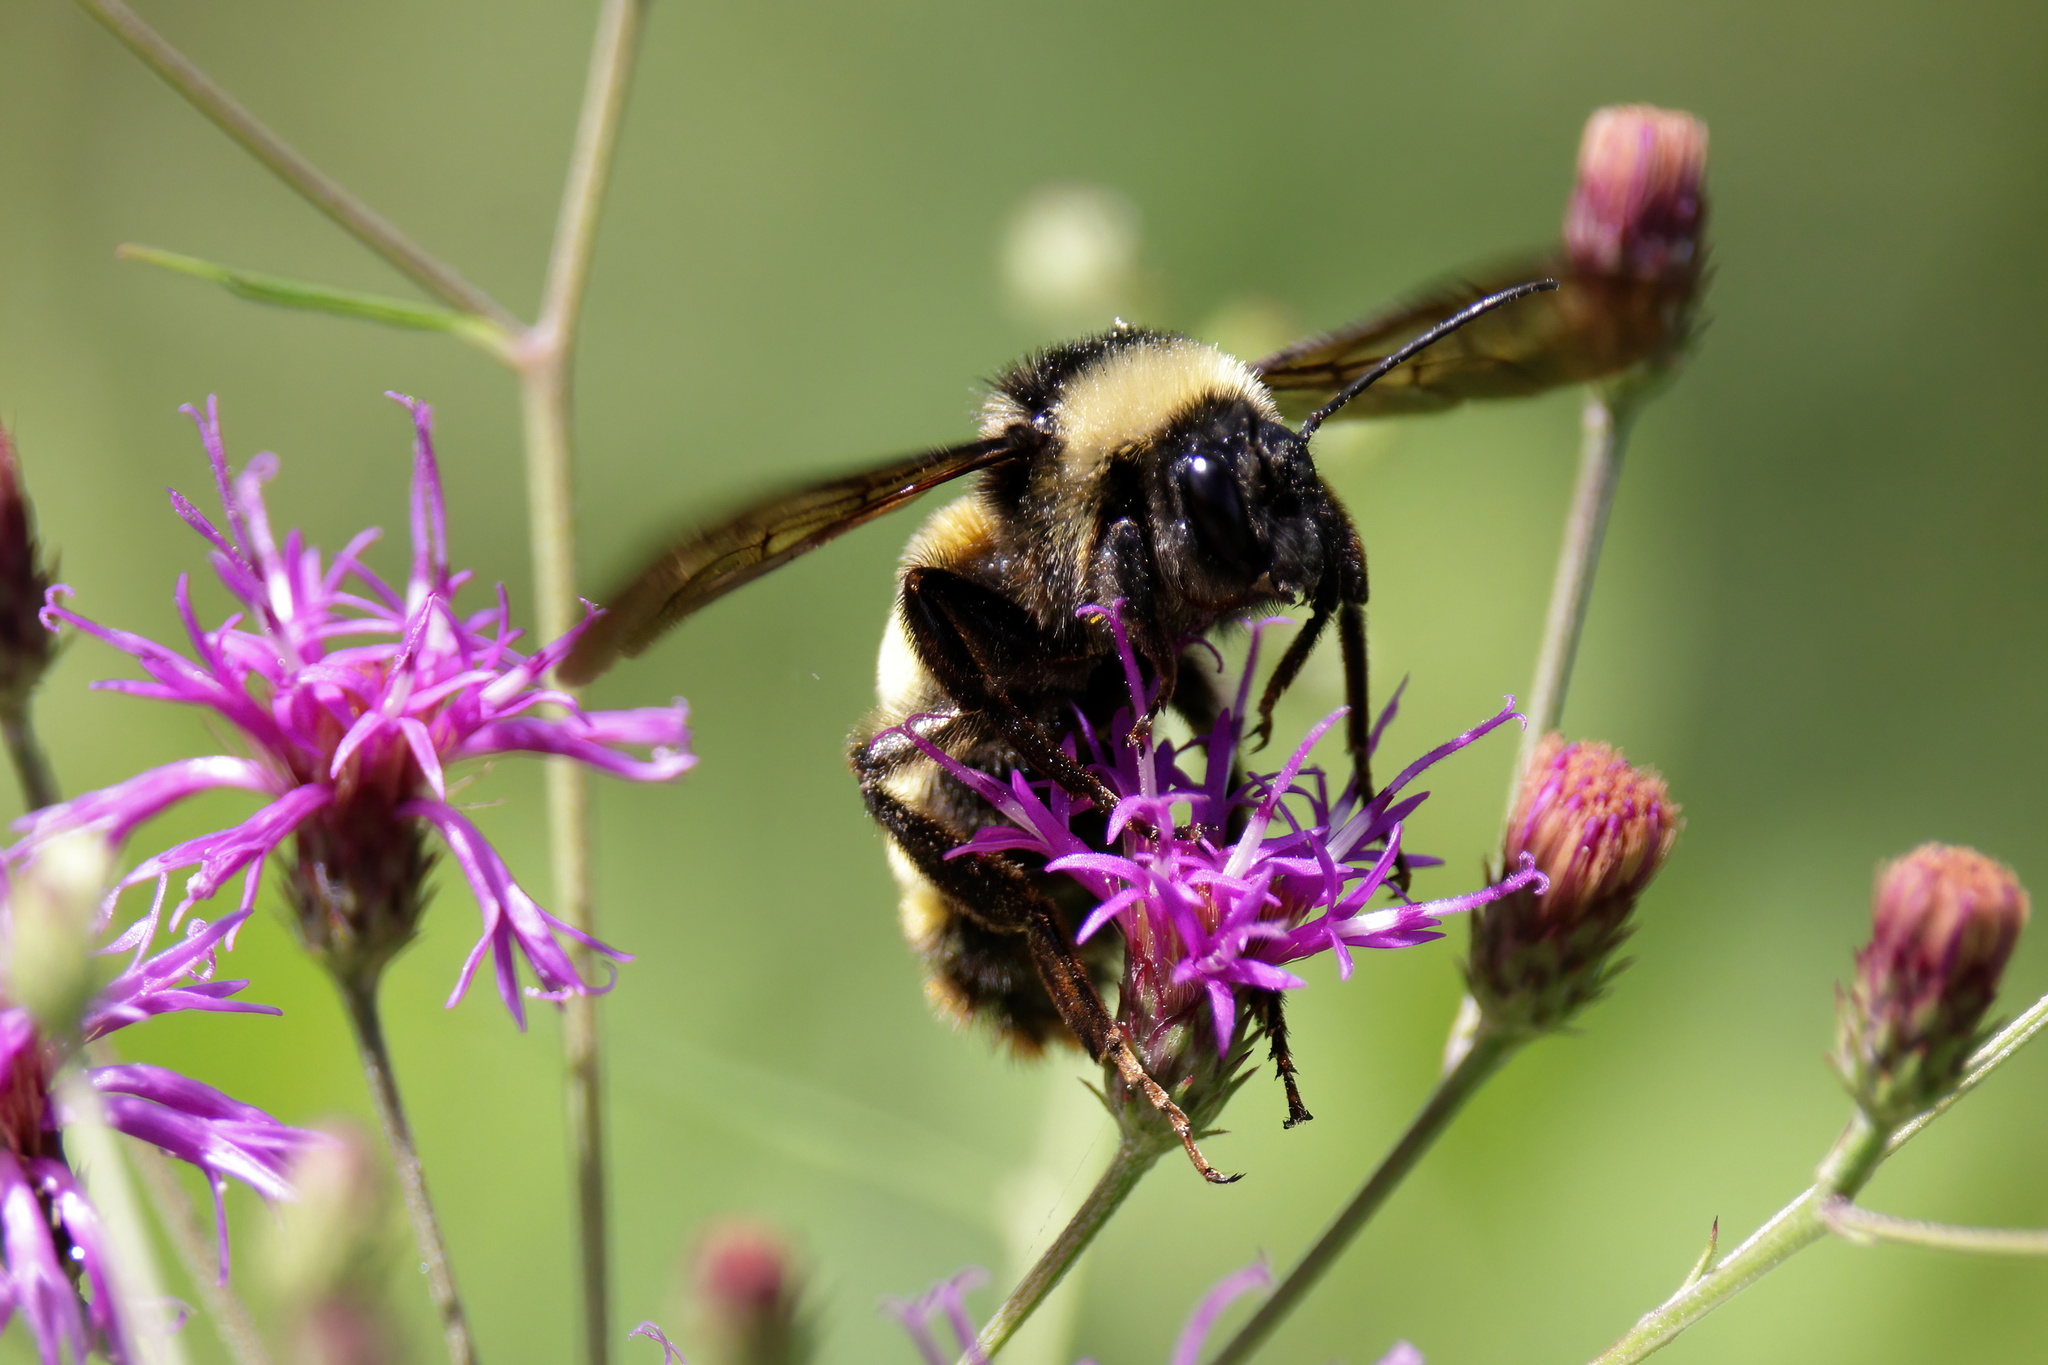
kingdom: Animalia
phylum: Arthropoda
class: Insecta
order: Hymenoptera
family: Apidae
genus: Bombus
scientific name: Bombus pensylvanicus
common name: Bumble bee
